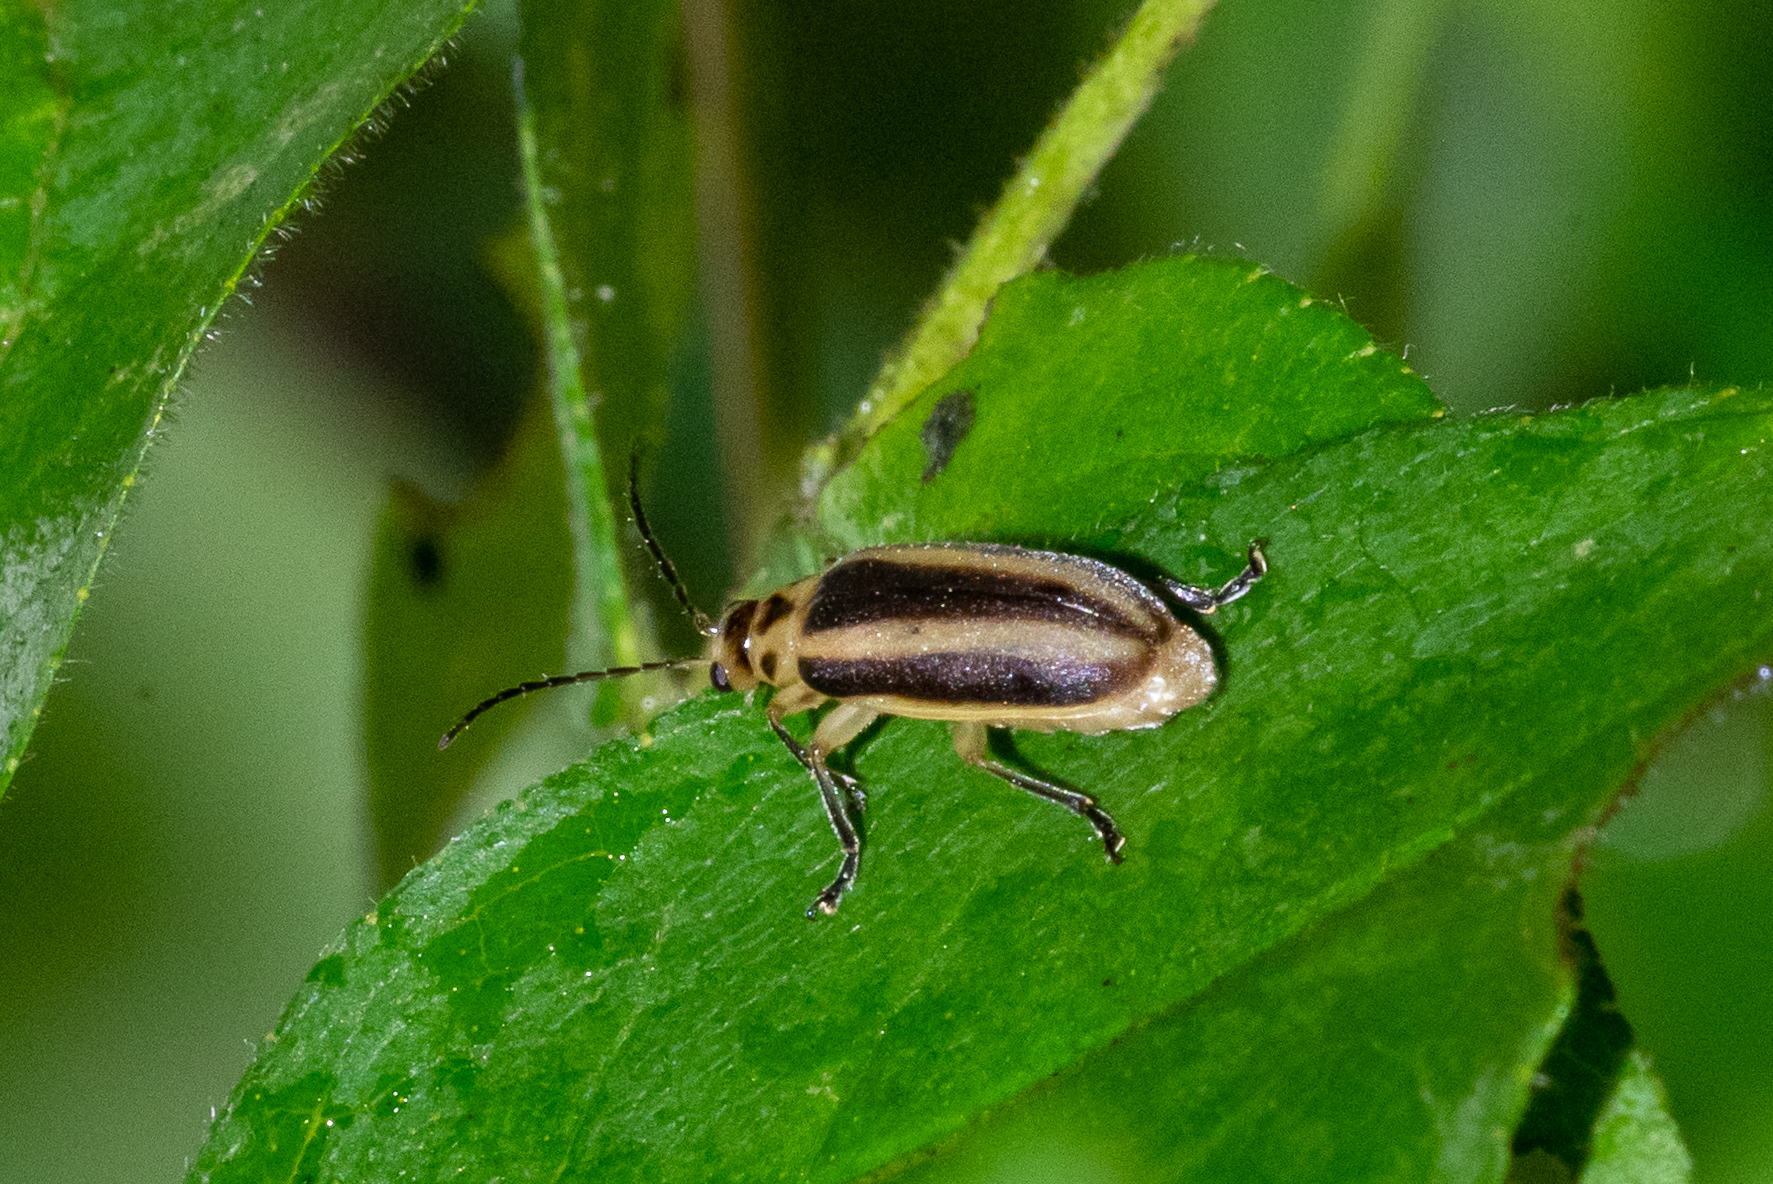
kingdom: Animalia
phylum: Arthropoda
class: Insecta
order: Coleoptera
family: Chrysomelidae
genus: Trirhabda
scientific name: Trirhabda canadensis
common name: Goldenrod leaf beetle
